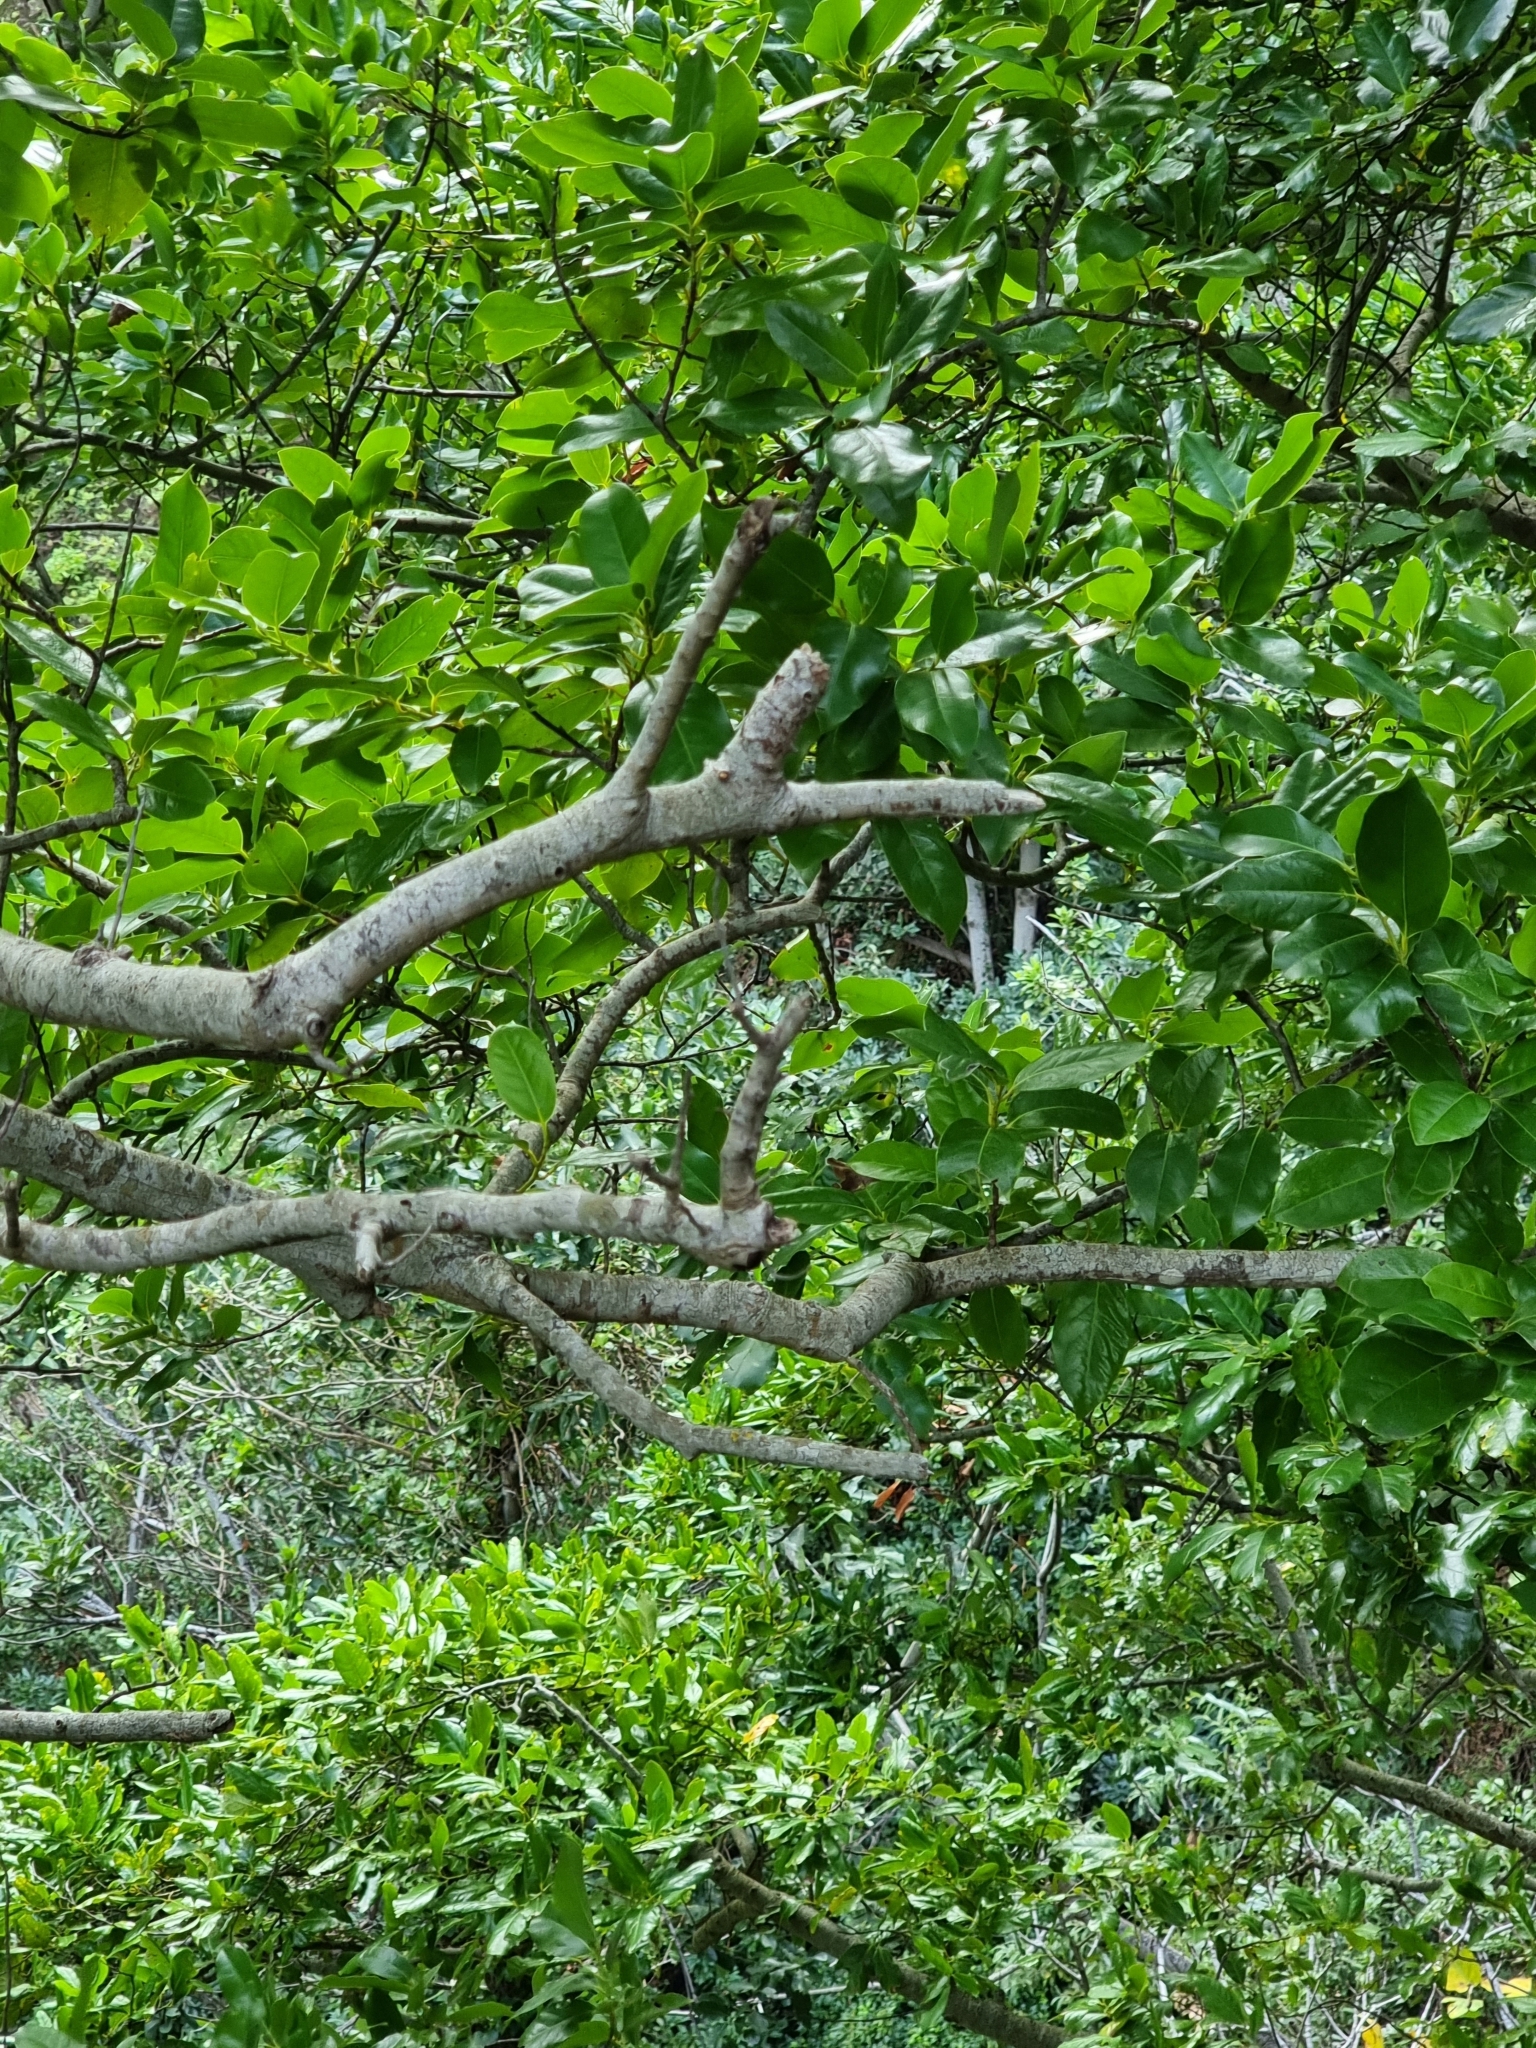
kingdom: Plantae
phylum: Tracheophyta
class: Magnoliopsida
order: Laurales
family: Lauraceae
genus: Mespilodaphne
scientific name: Mespilodaphne foetens
